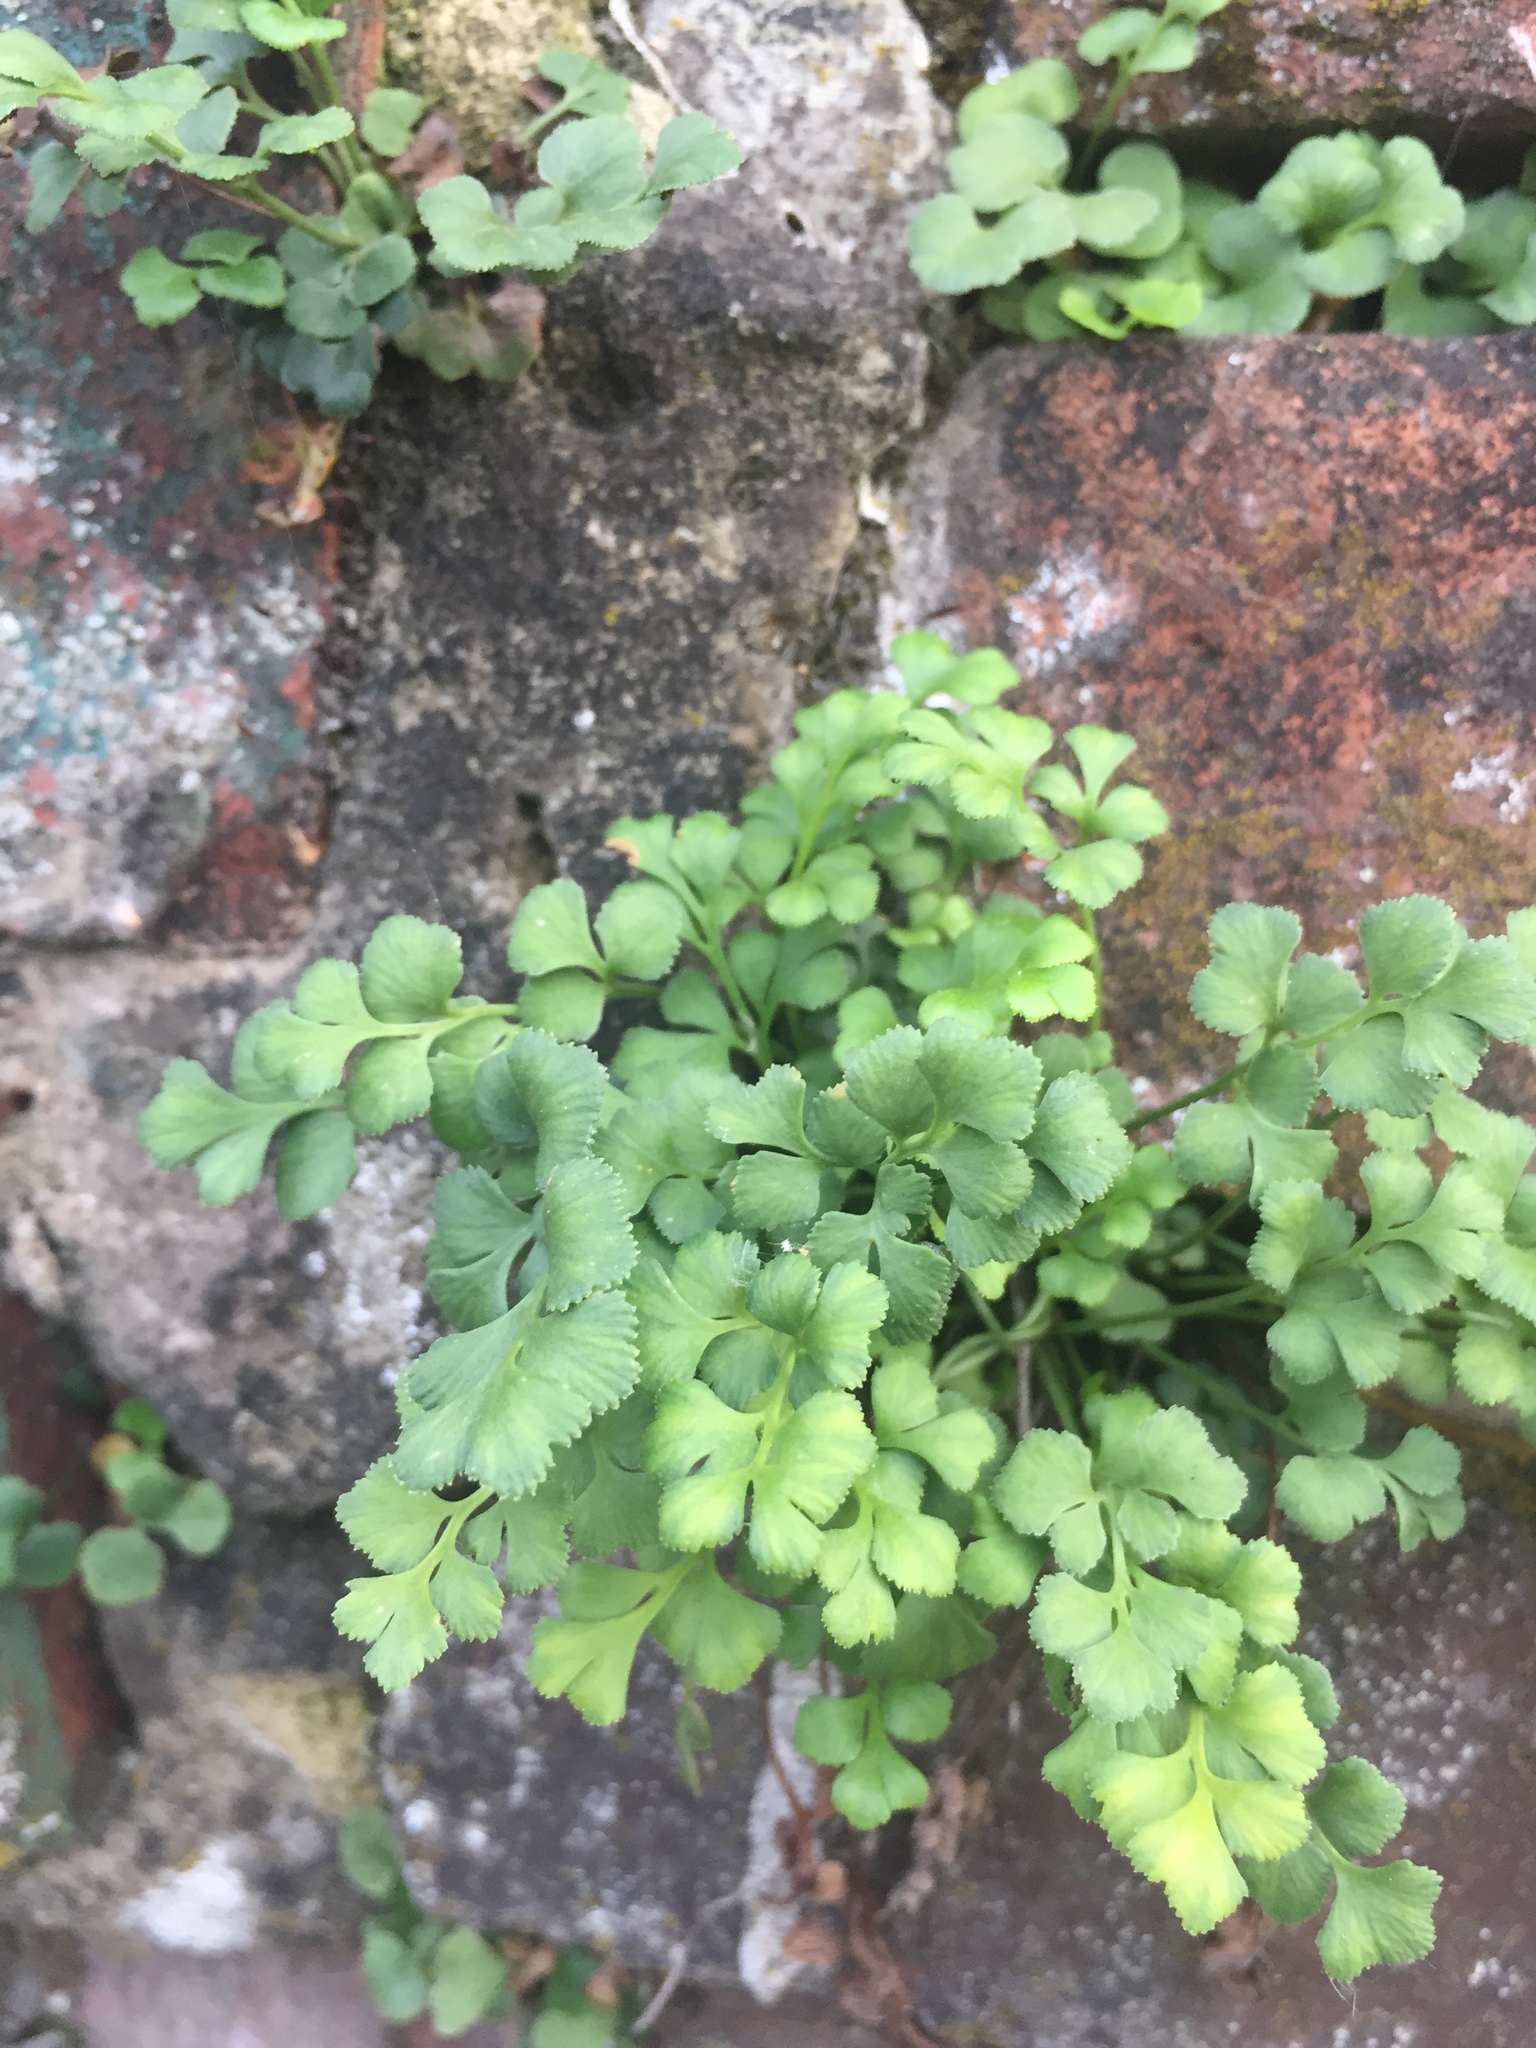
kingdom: Plantae
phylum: Tracheophyta
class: Polypodiopsida
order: Polypodiales
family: Aspleniaceae
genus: Asplenium
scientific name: Asplenium ruta-muraria
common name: Wall-rue
